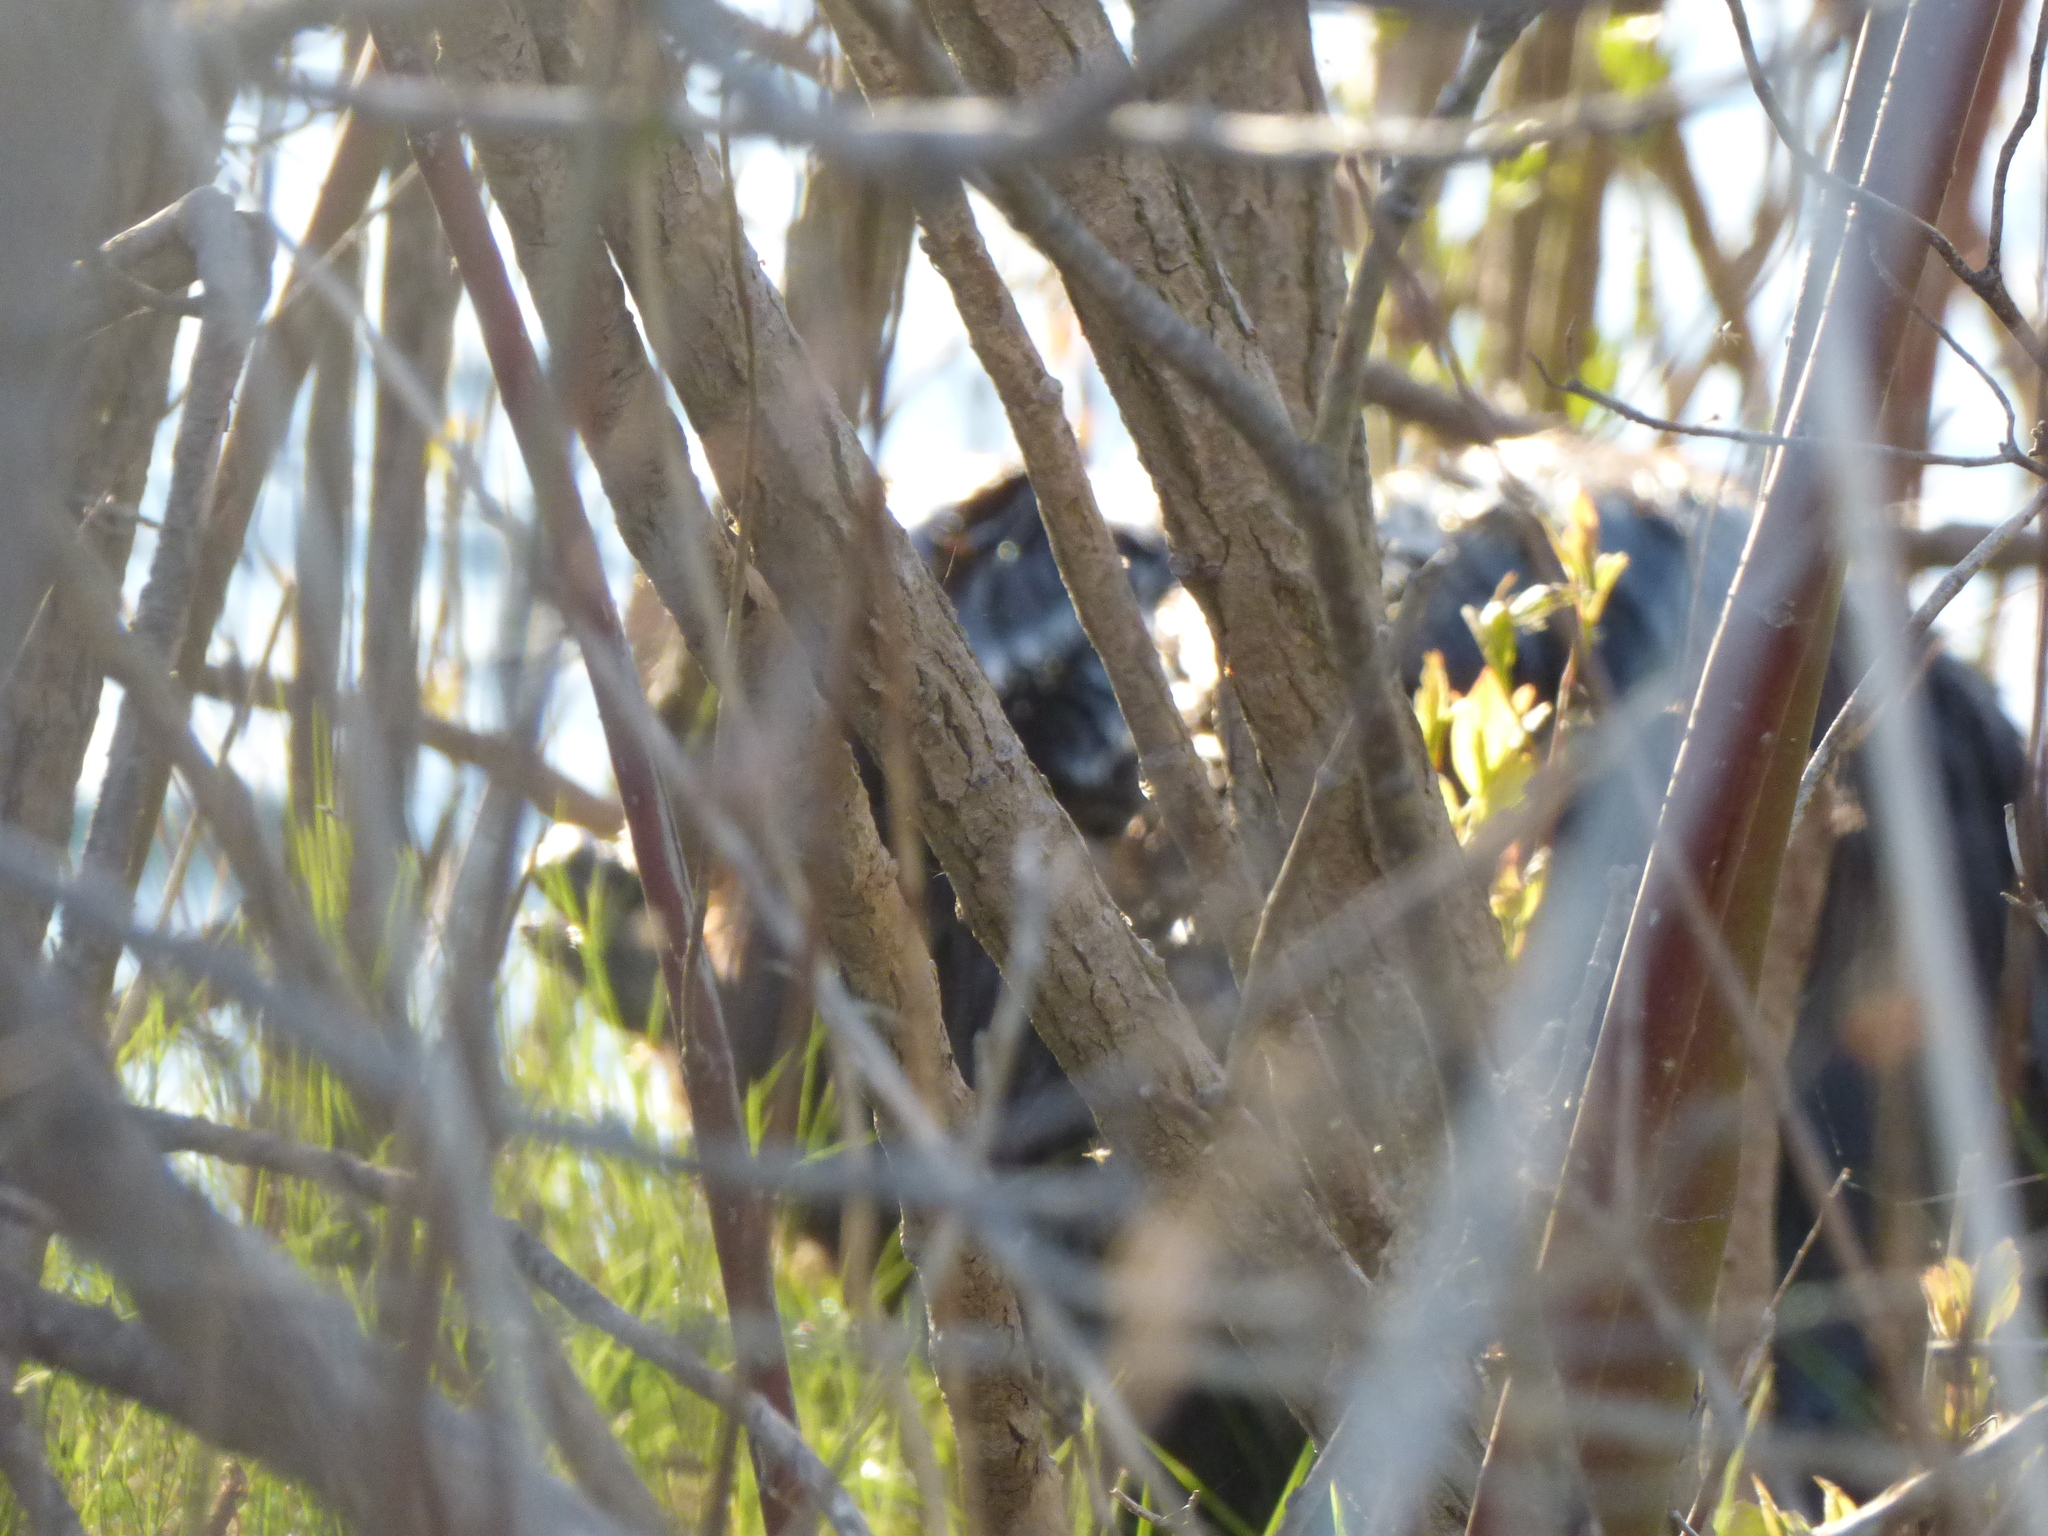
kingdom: Animalia
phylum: Chordata
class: Mammalia
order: Rodentia
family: Castoridae
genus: Castor
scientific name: Castor canadensis
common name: American beaver
